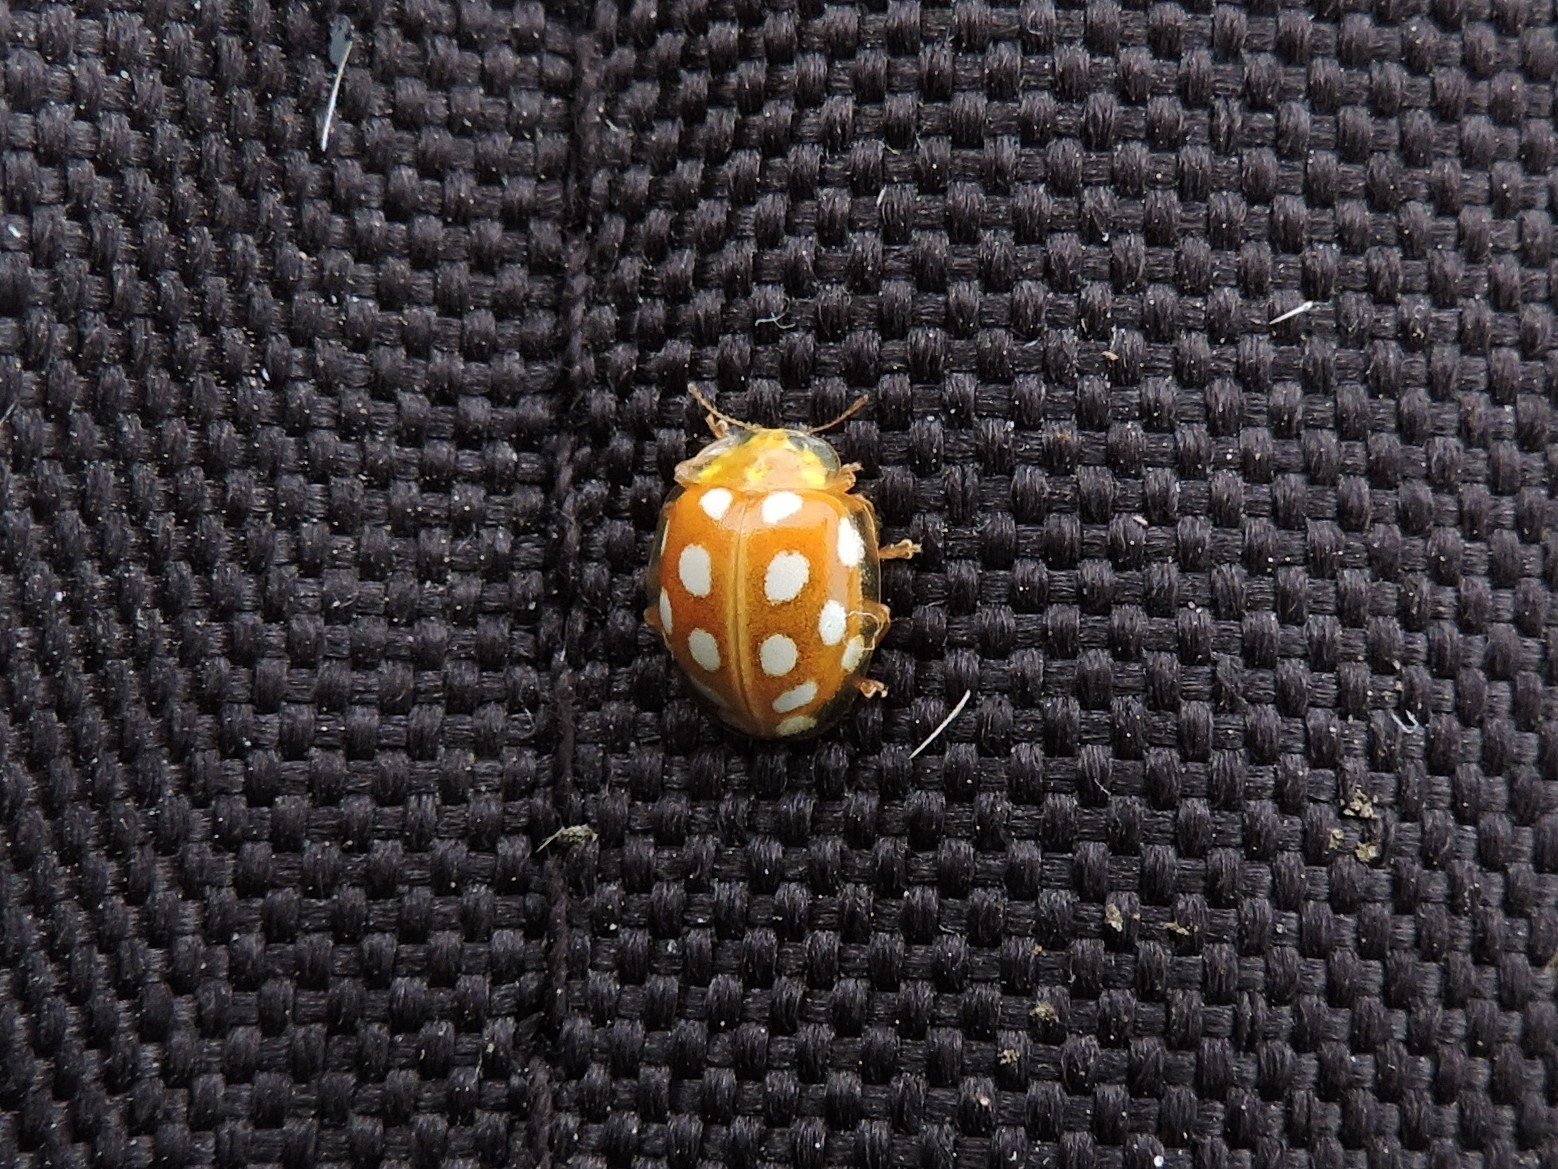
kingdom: Animalia
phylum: Arthropoda
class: Insecta
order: Coleoptera
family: Coccinellidae
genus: Halyzia
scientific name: Halyzia sedecimguttata
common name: Orange ladybird
